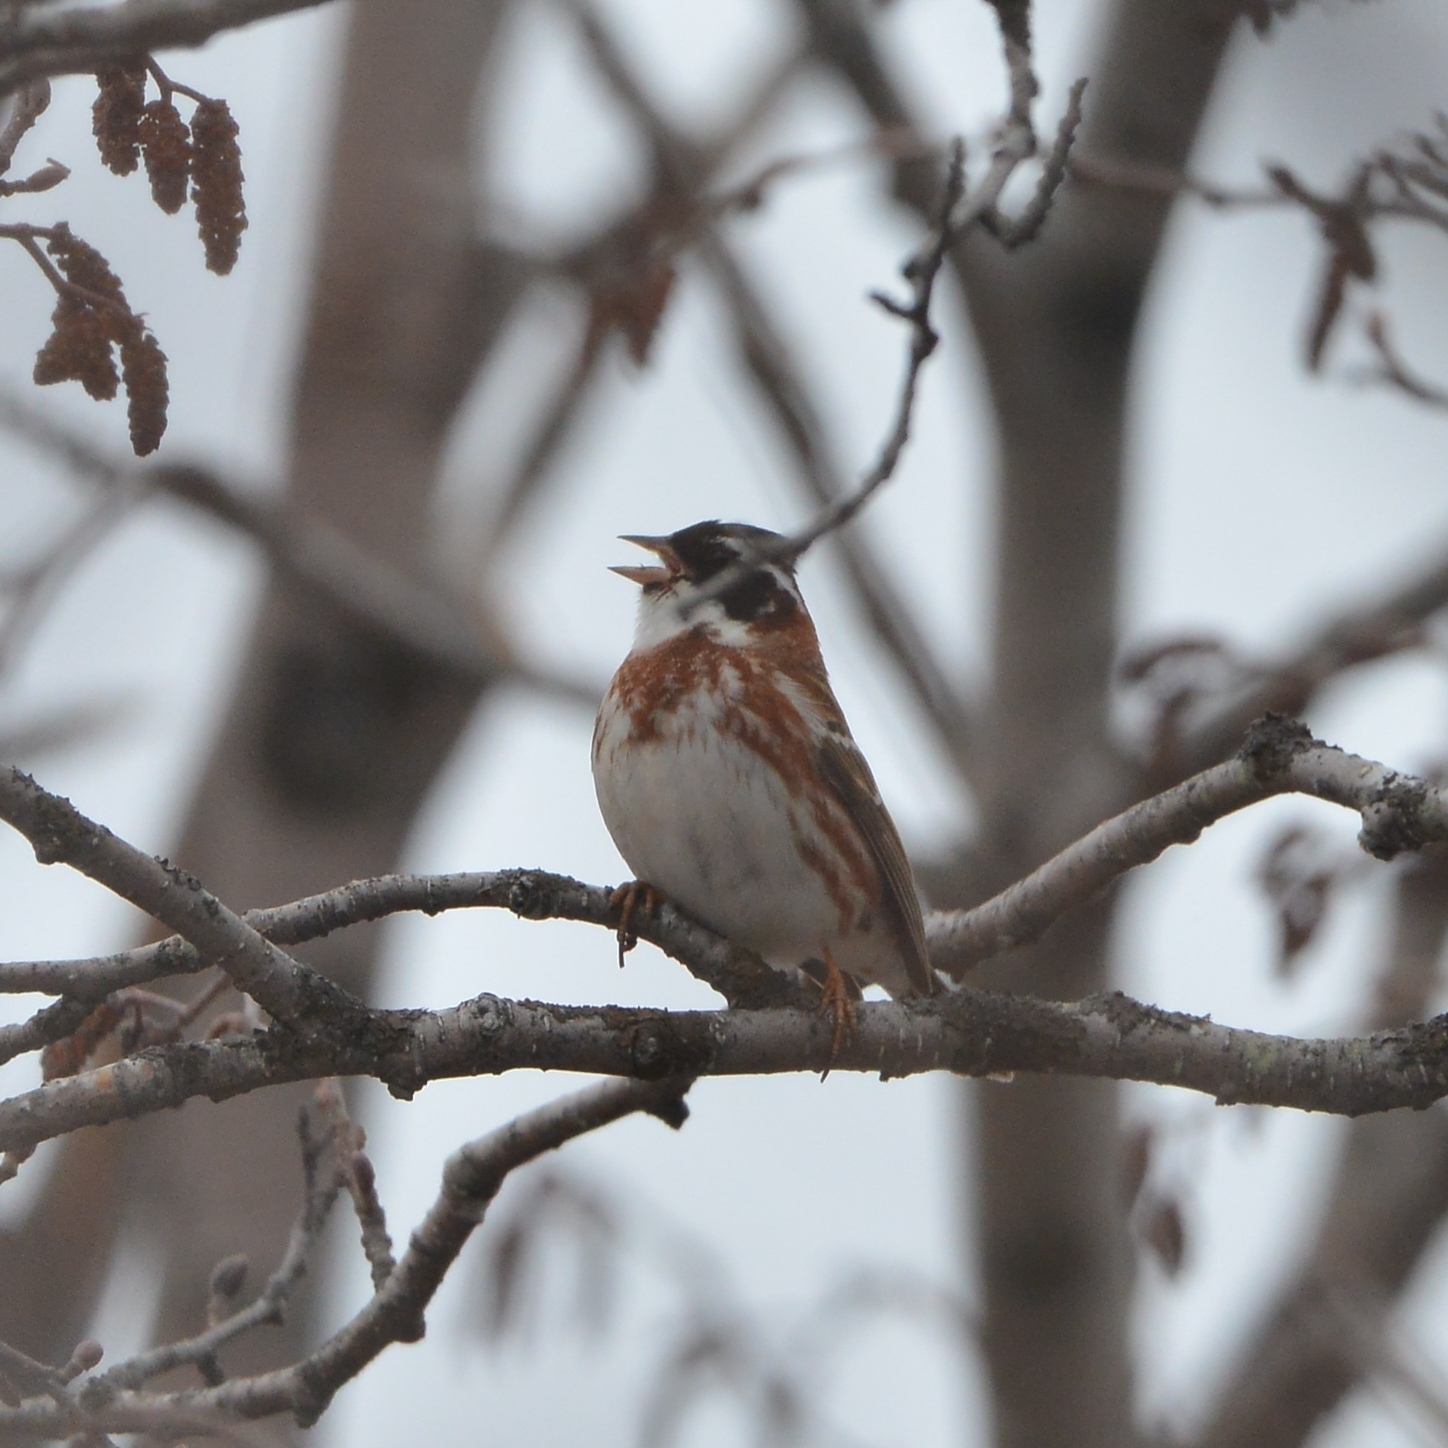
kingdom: Animalia
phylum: Chordata
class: Aves
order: Passeriformes
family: Emberizidae
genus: Emberiza
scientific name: Emberiza rustica
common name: Rustic bunting
